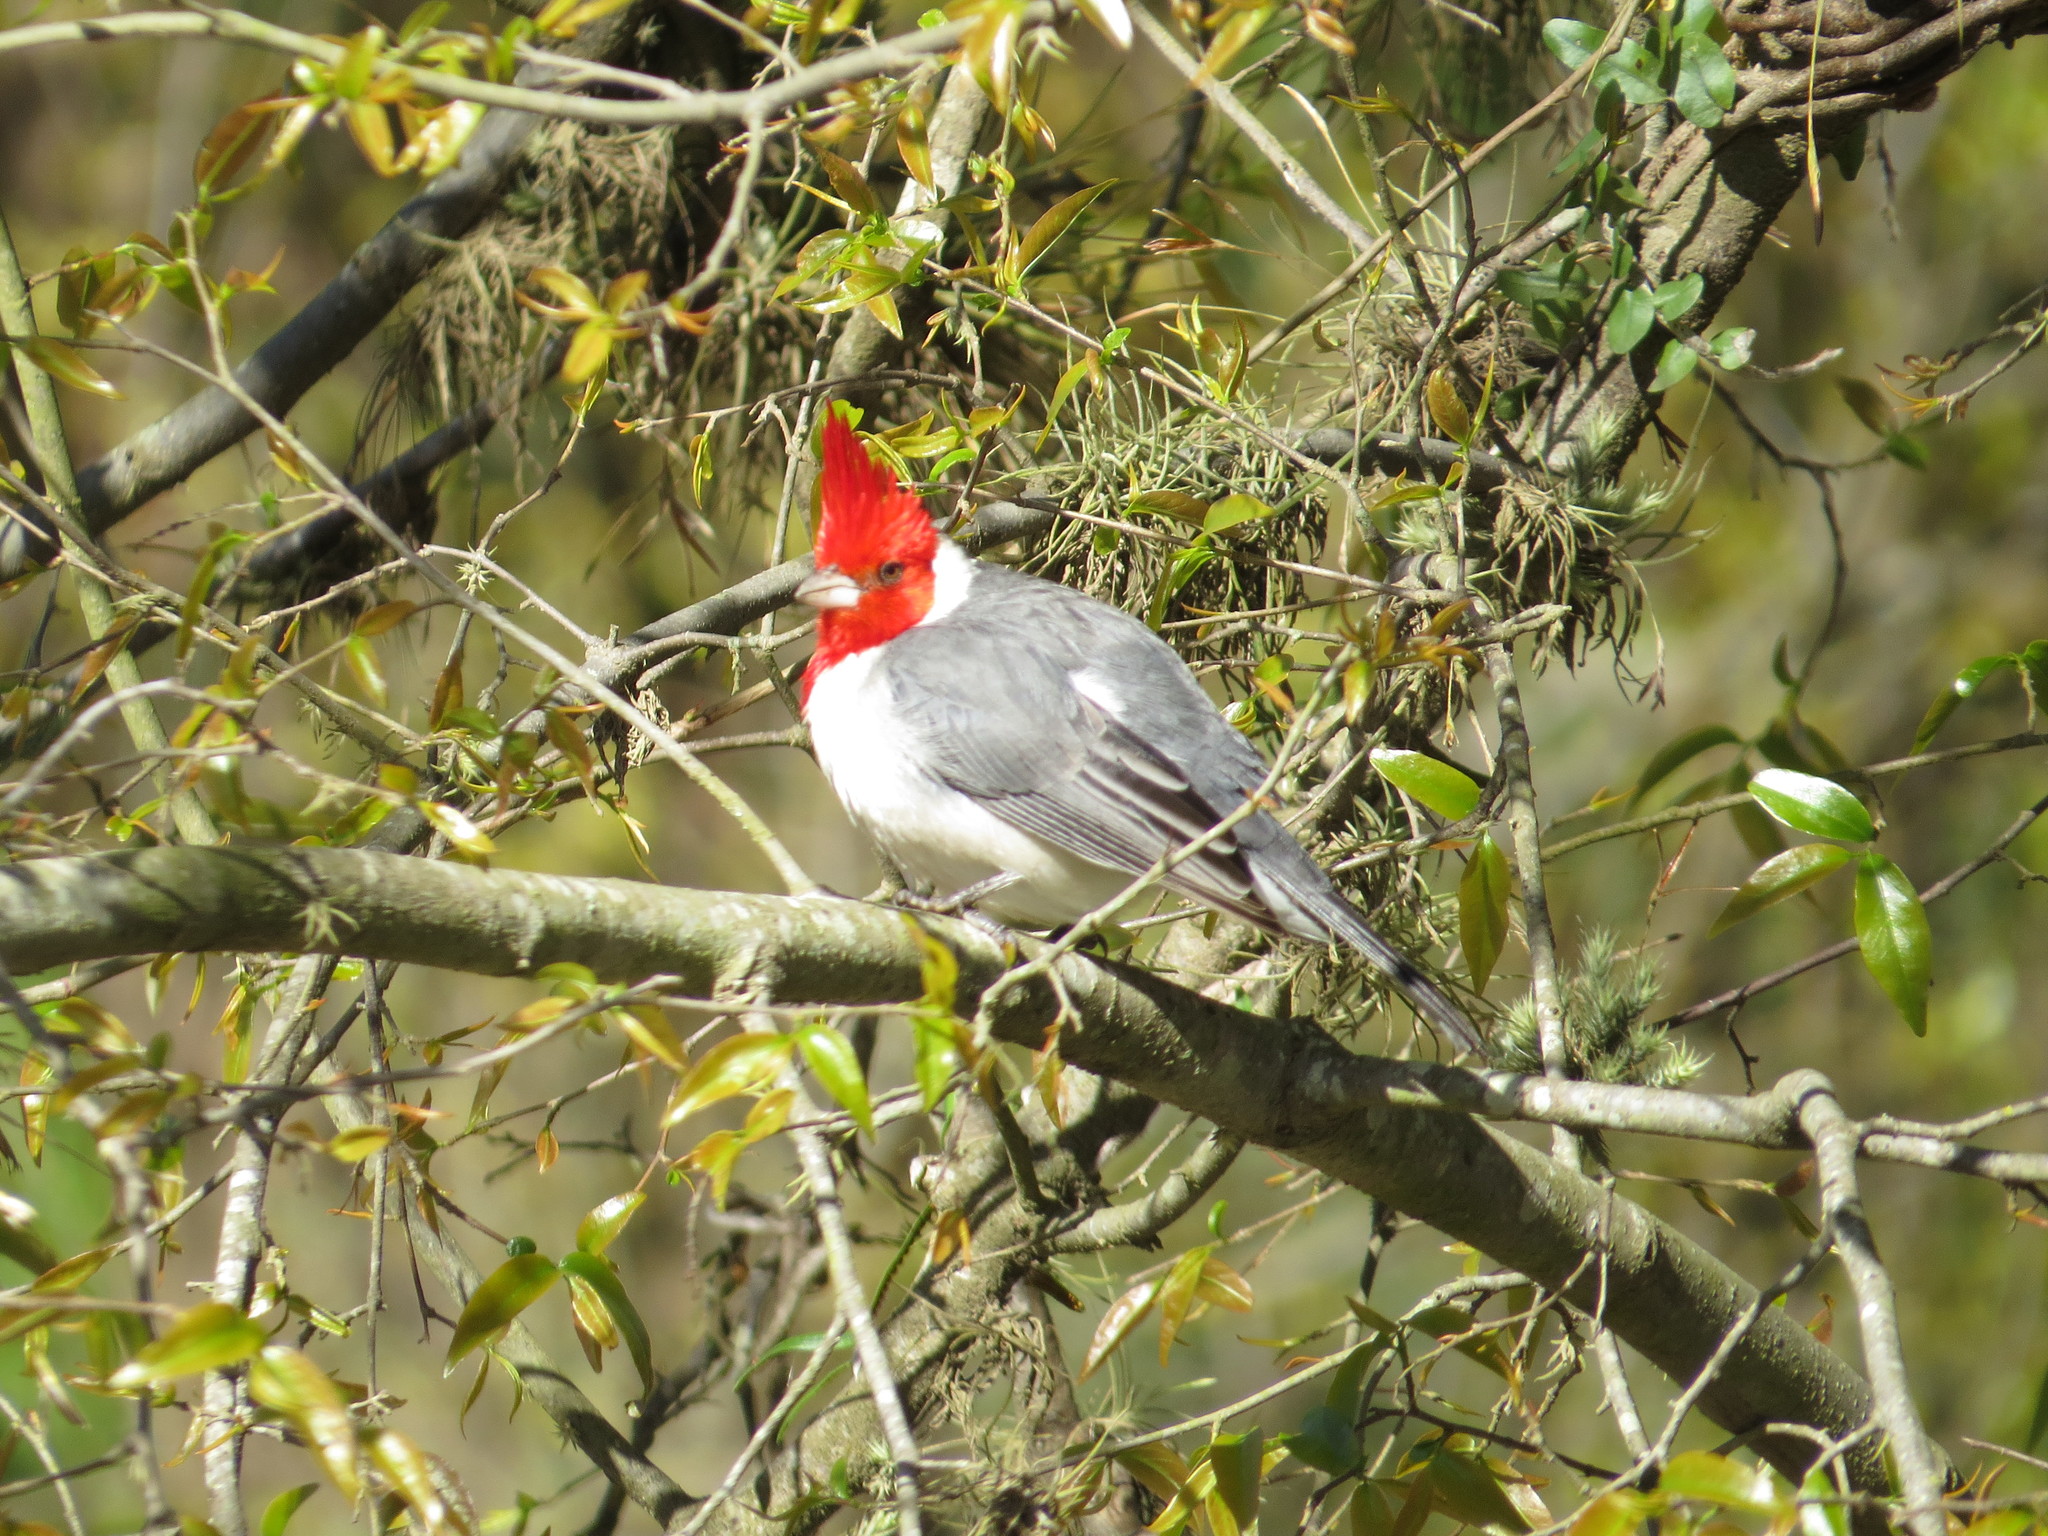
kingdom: Animalia
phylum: Chordata
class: Aves
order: Passeriformes
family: Thraupidae
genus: Paroaria
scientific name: Paroaria coronata
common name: Red-crested cardinal
